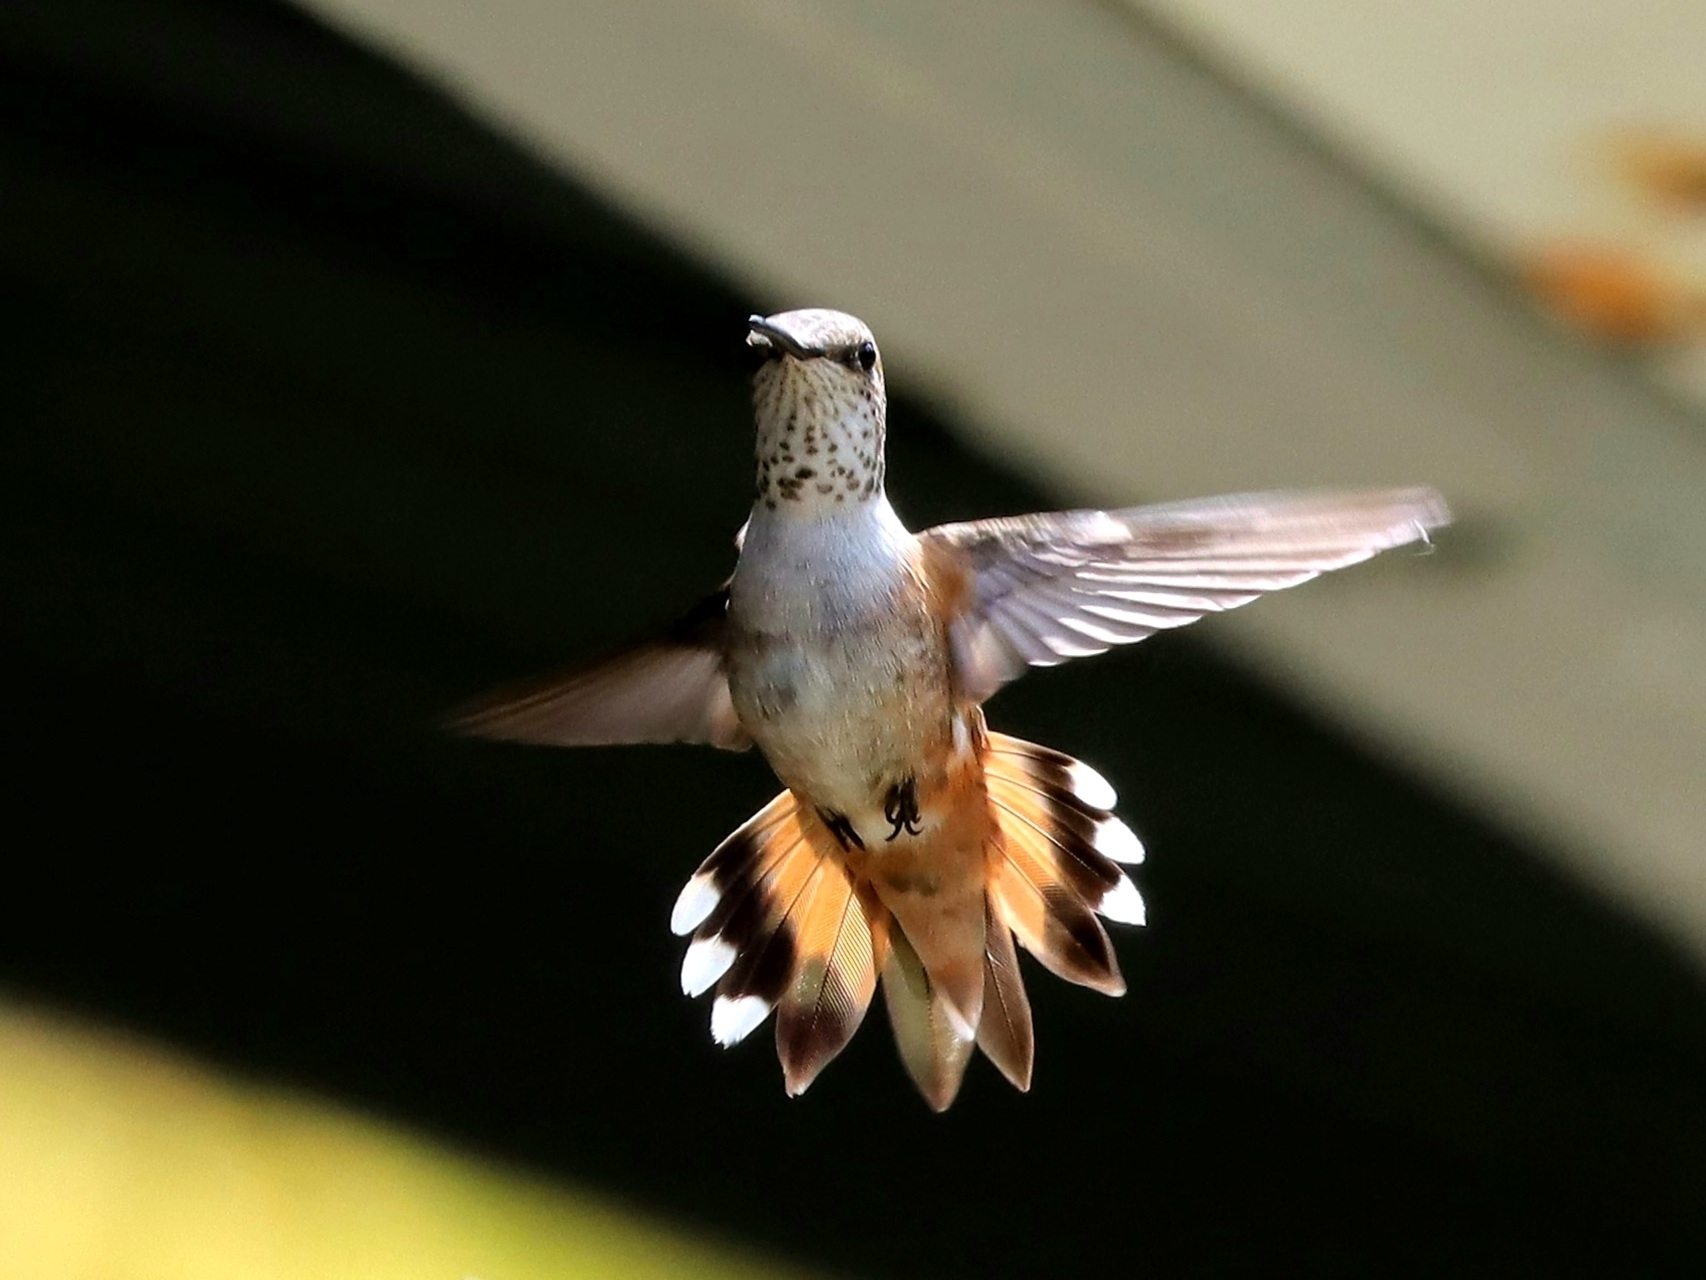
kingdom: Animalia
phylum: Chordata
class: Aves
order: Apodiformes
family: Trochilidae
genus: Selasphorus
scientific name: Selasphorus rufus
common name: Rufous hummingbird
